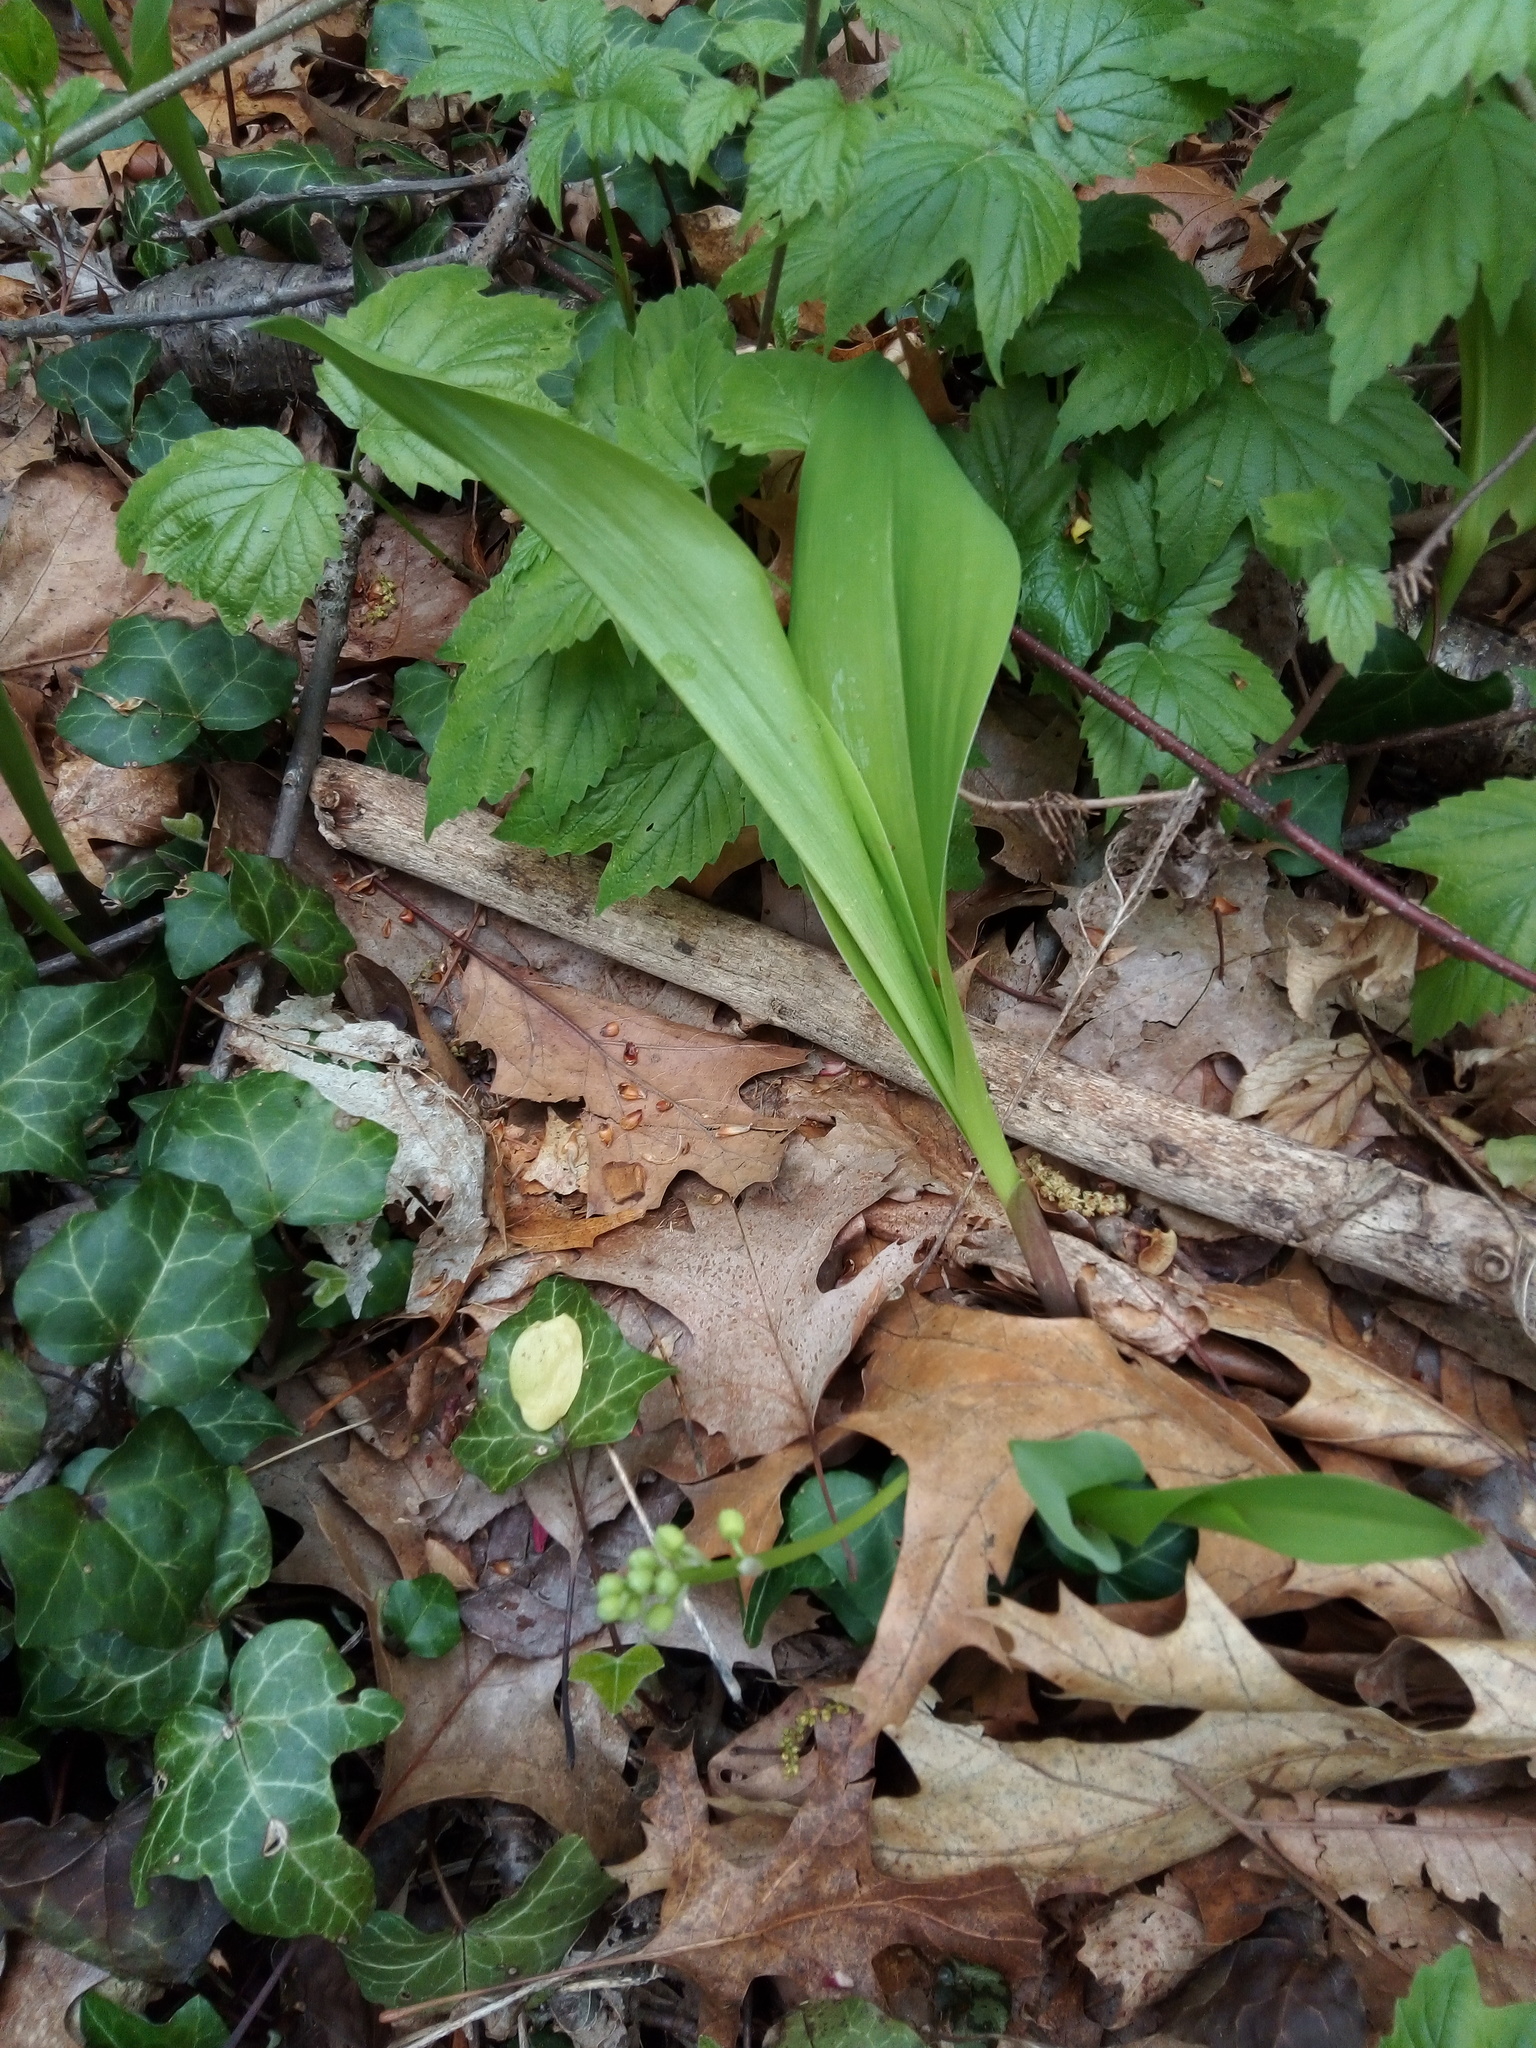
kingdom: Plantae
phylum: Tracheophyta
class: Liliopsida
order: Asparagales
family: Asparagaceae
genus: Convallaria
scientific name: Convallaria majalis
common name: Lily-of-the-valley
